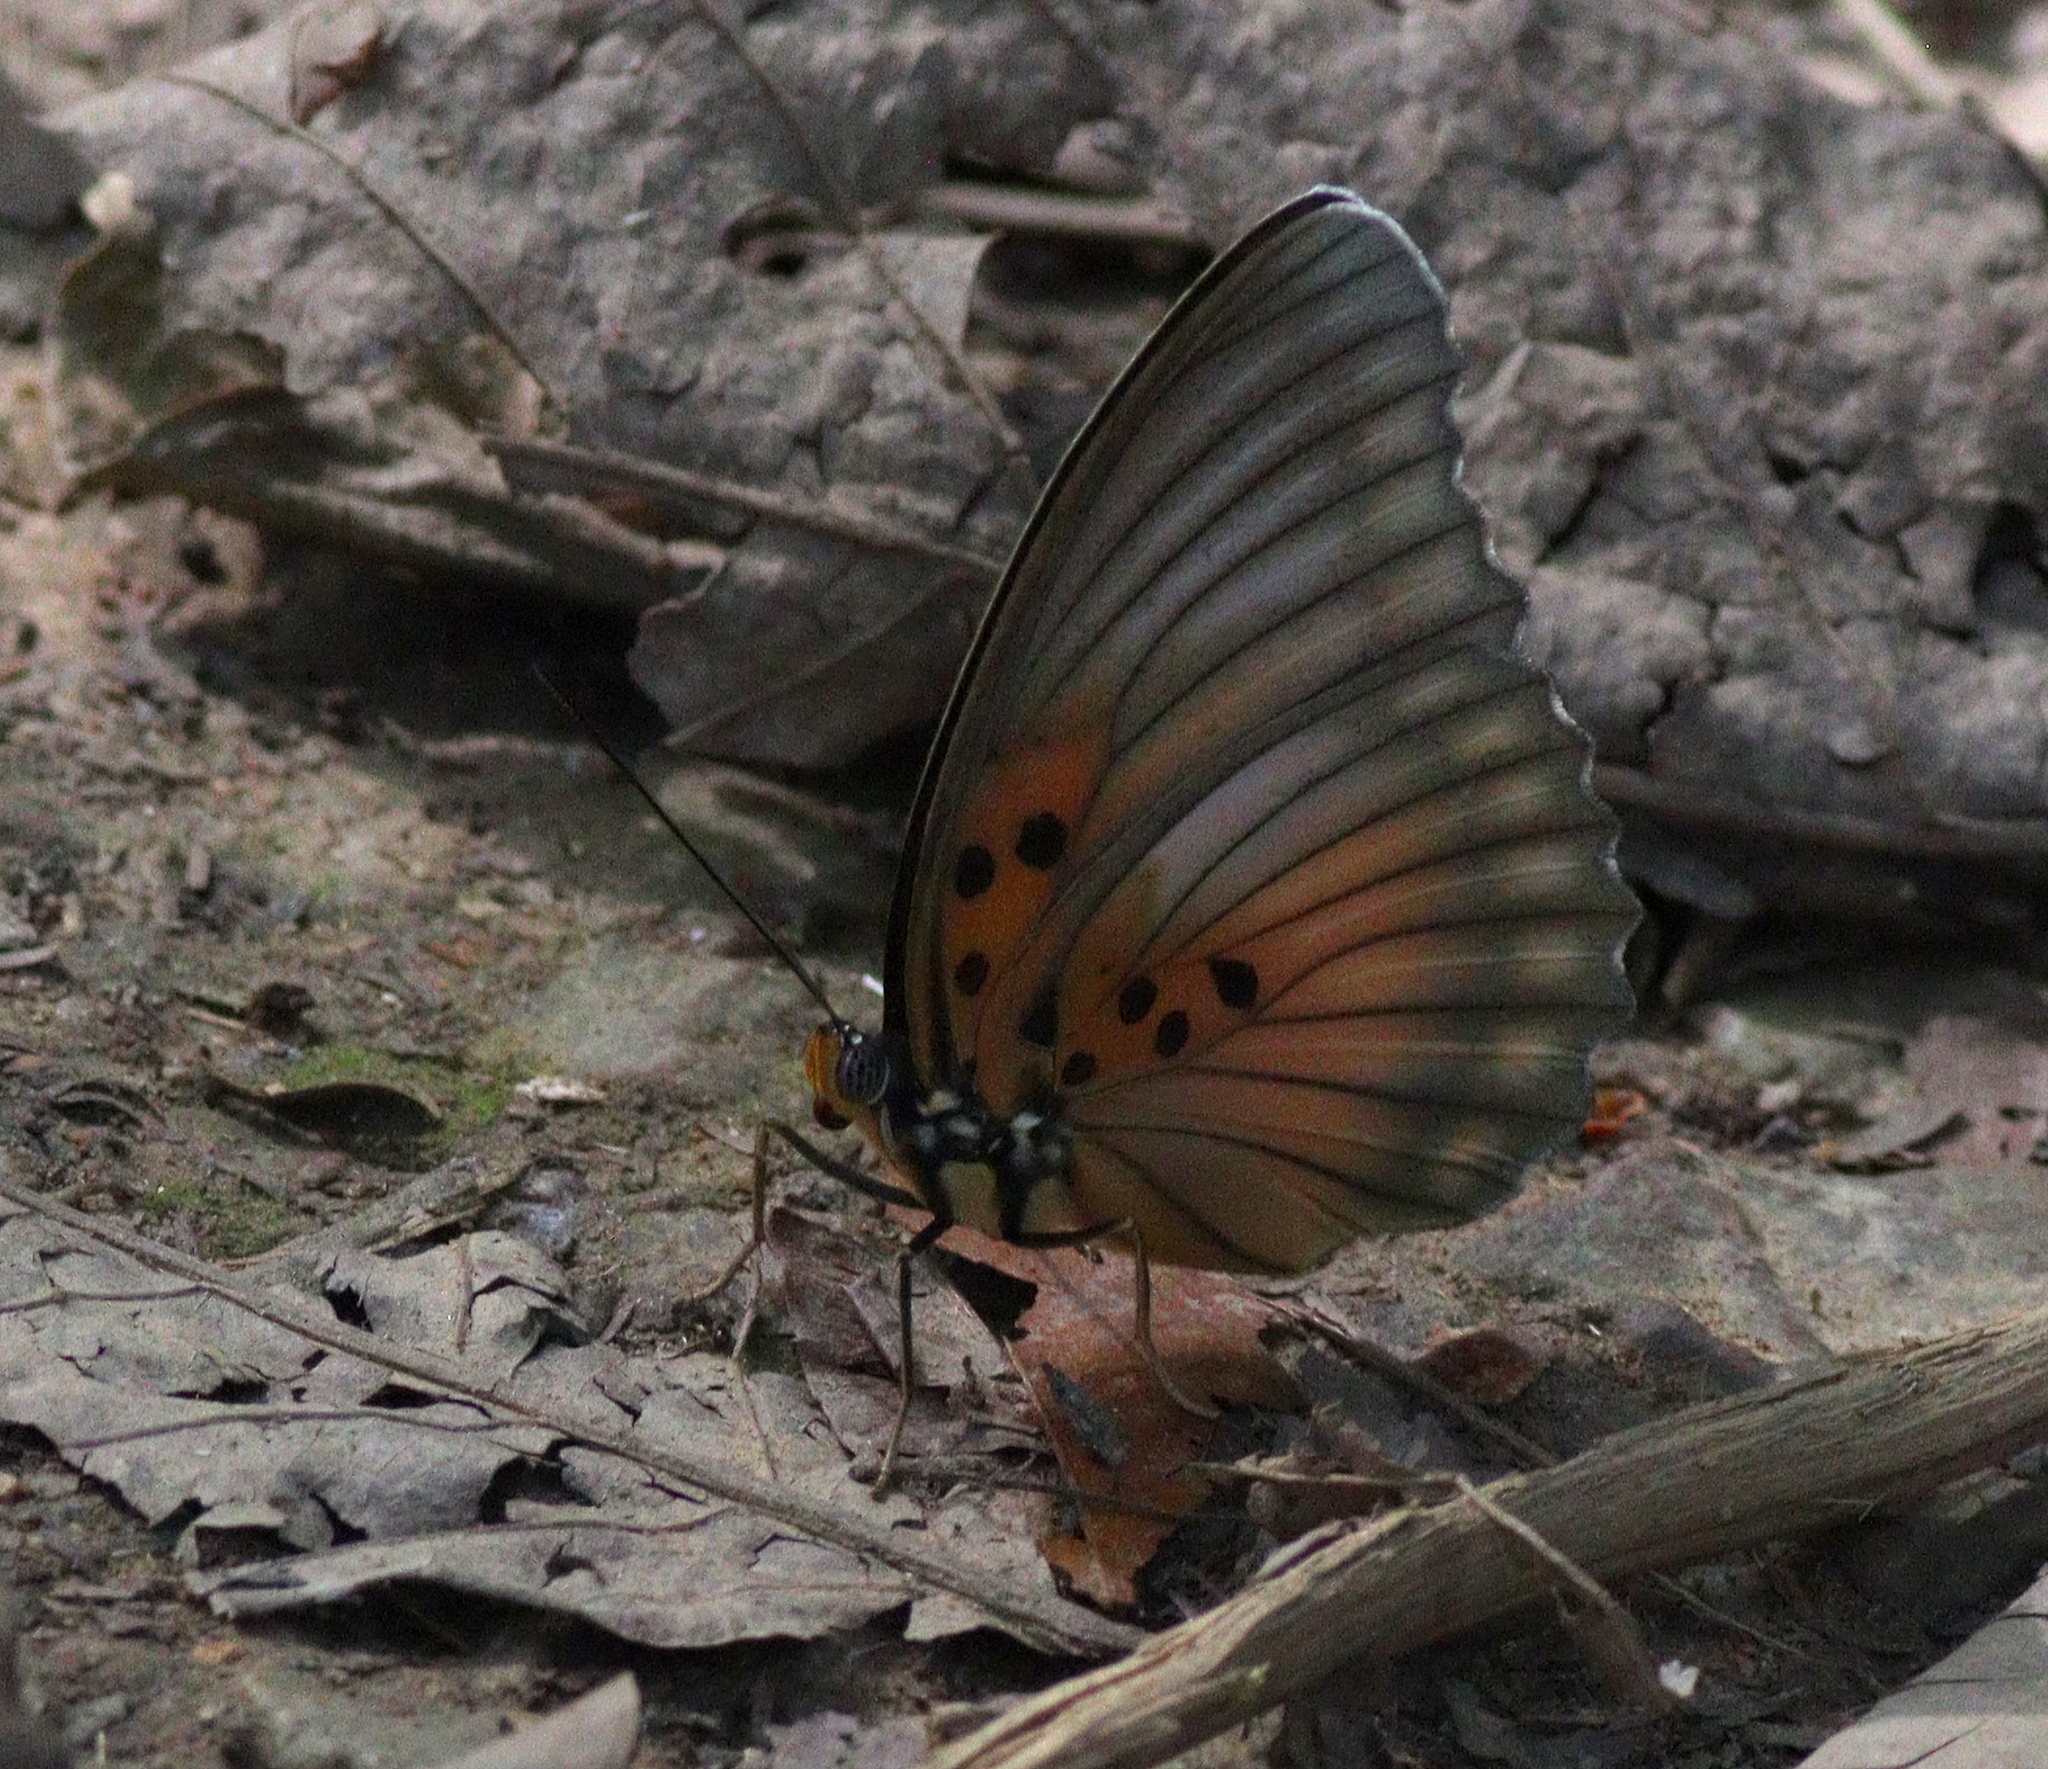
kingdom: Animalia
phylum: Arthropoda
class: Insecta
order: Lepidoptera
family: Nymphalidae
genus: Euphaedra
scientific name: Euphaedra edwardsii
